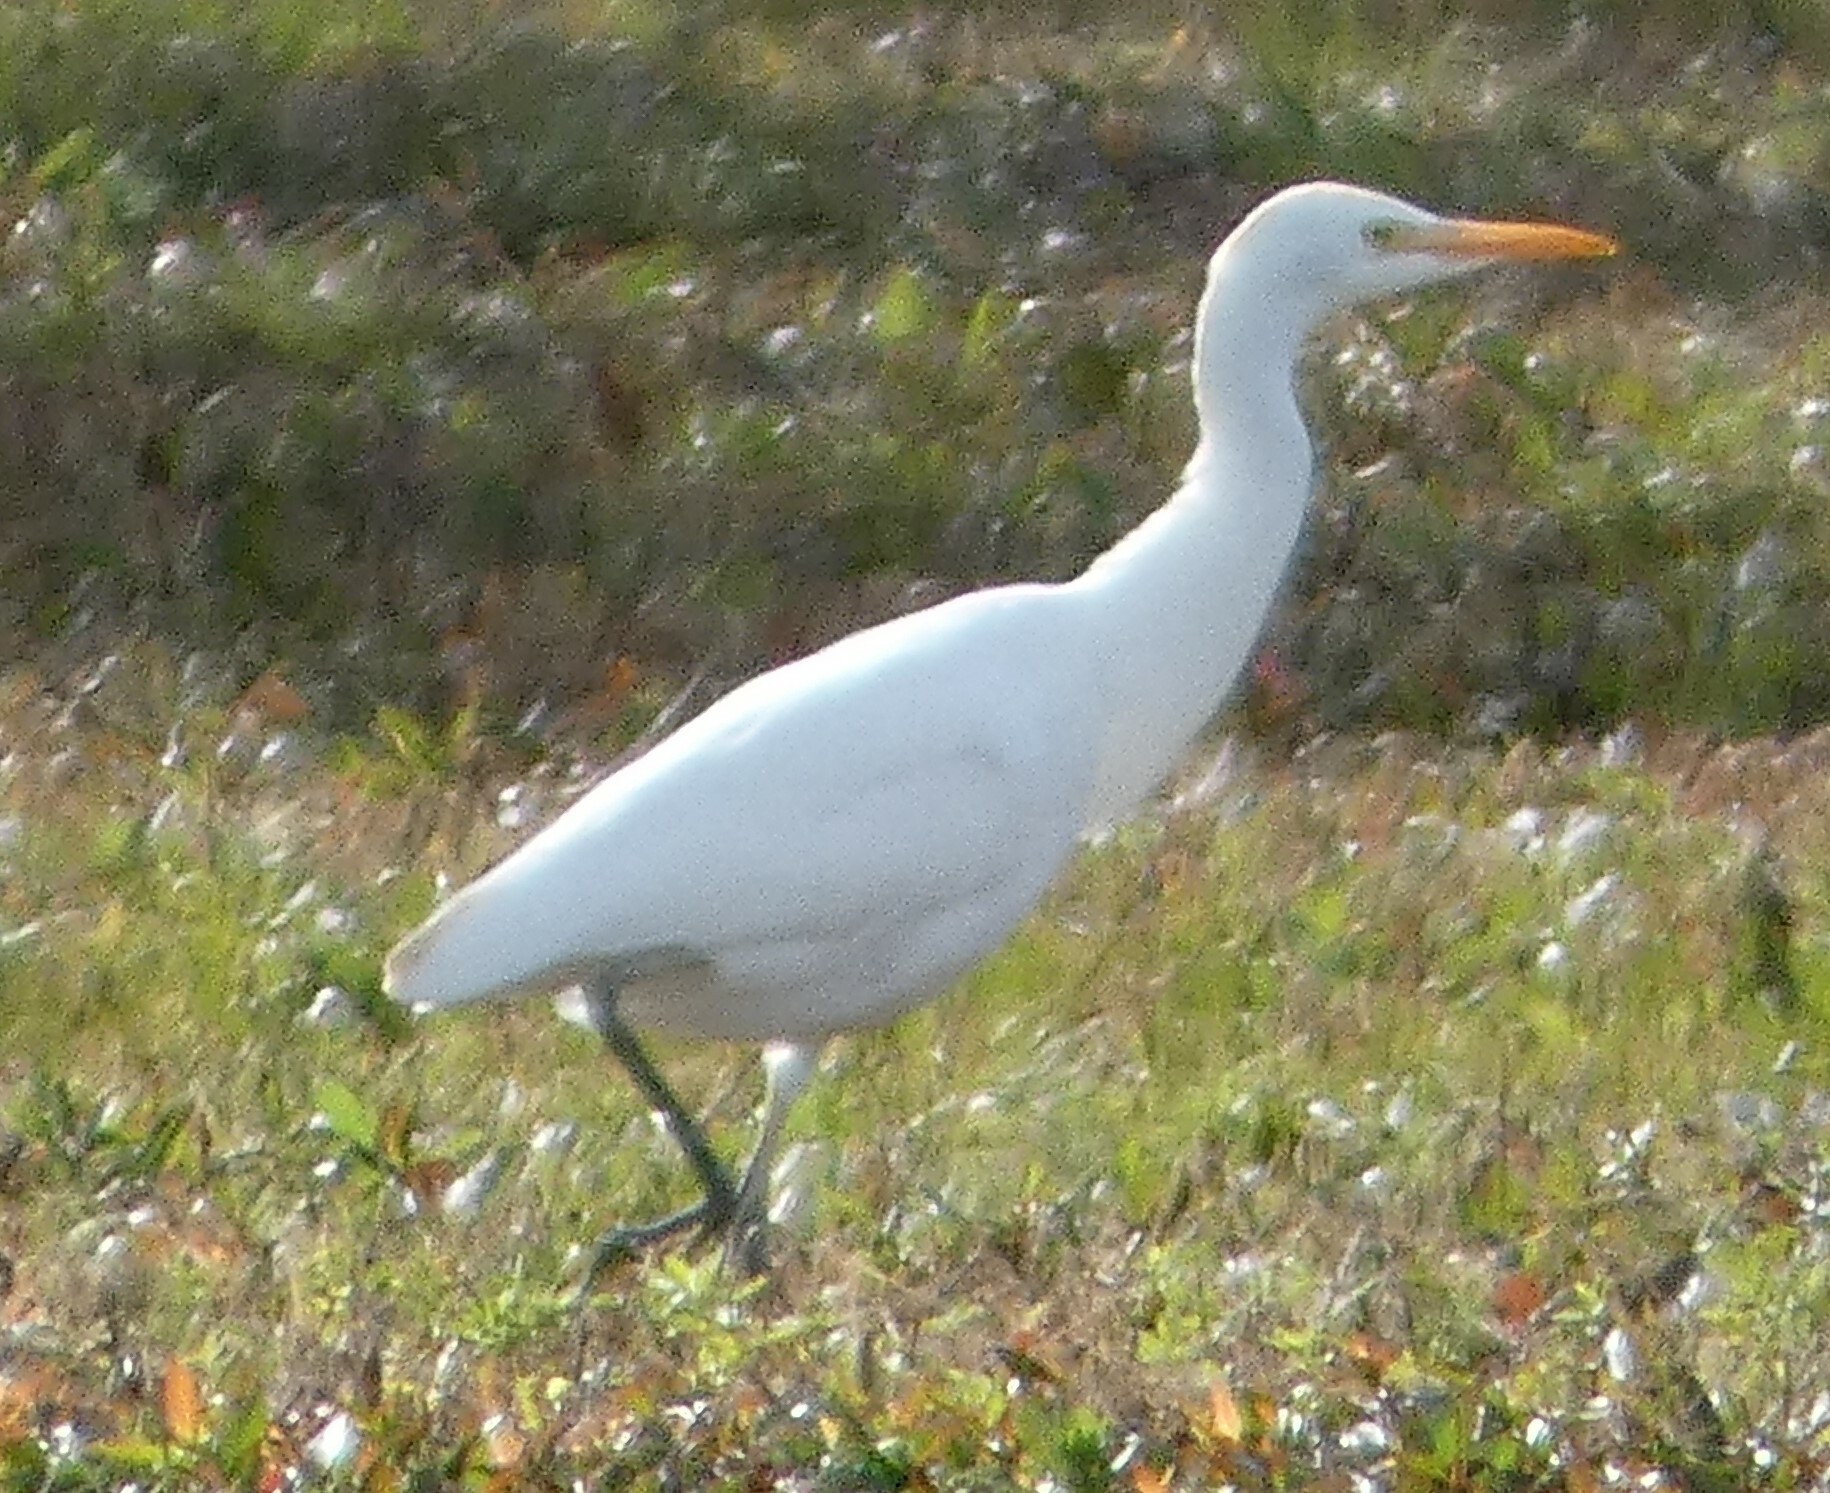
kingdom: Animalia
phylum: Chordata
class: Aves
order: Pelecaniformes
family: Ardeidae
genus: Bubulcus
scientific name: Bubulcus ibis
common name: Cattle egret
